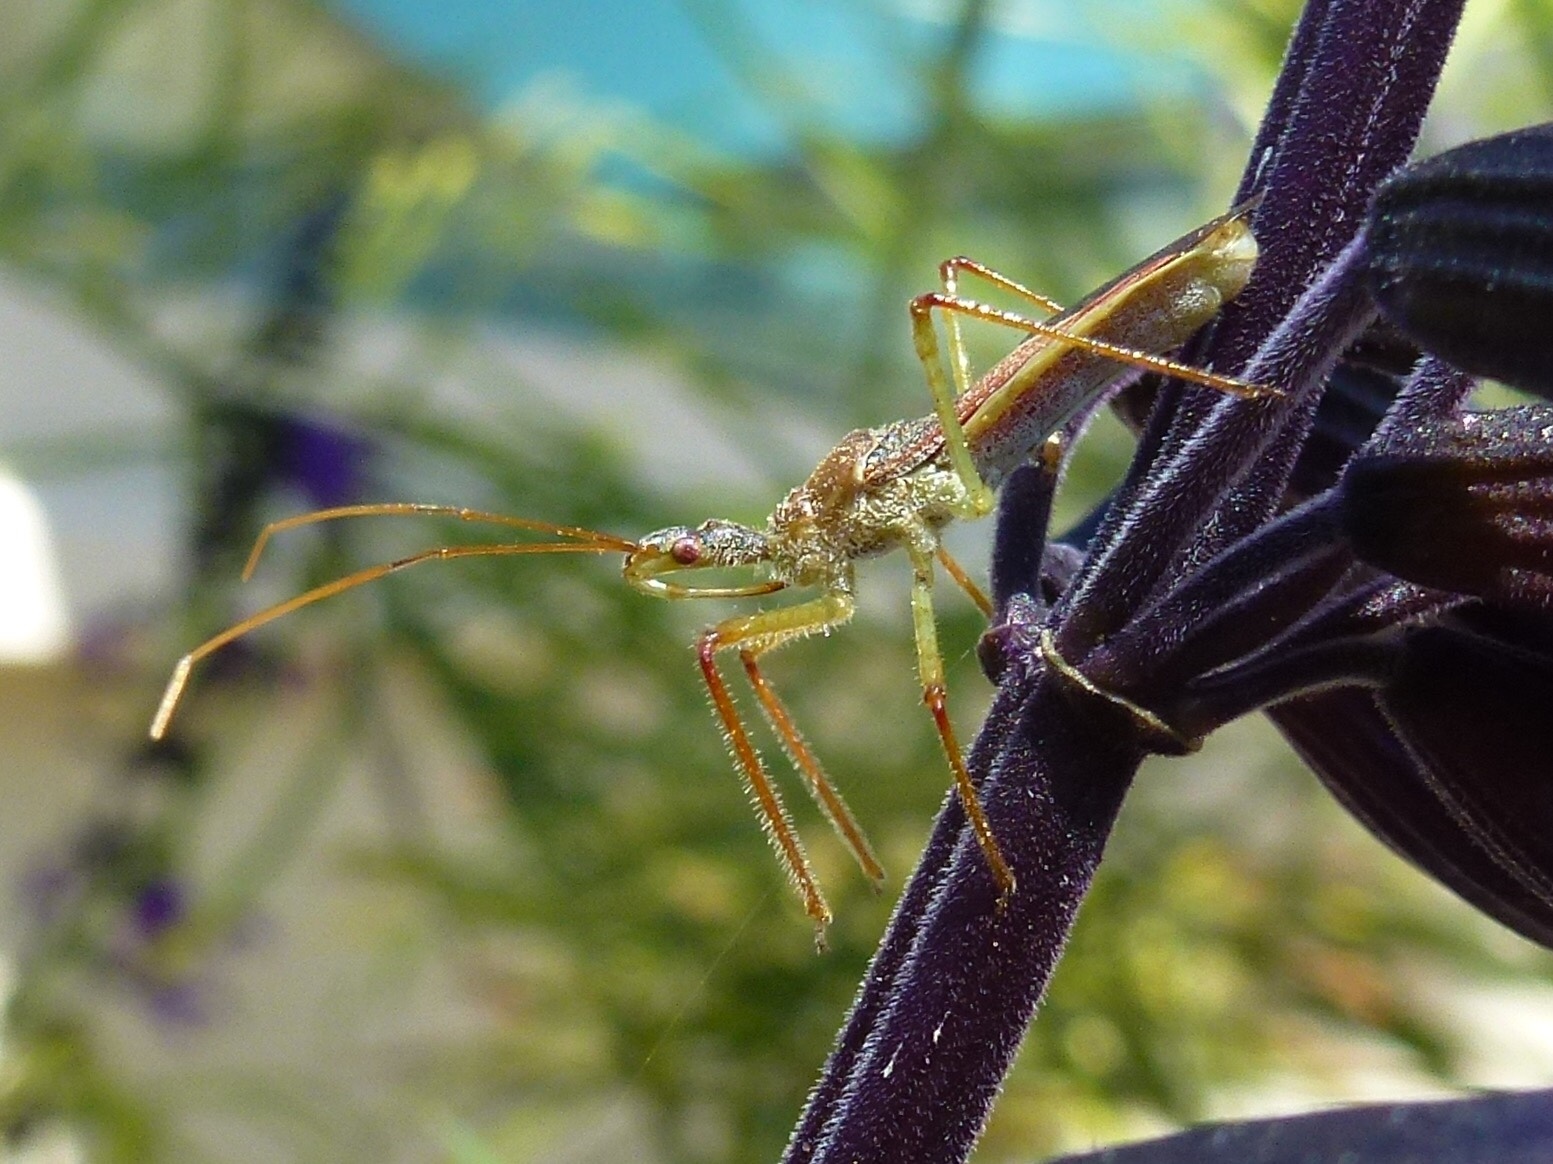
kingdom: Animalia
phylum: Arthropoda
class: Insecta
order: Hemiptera
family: Reduviidae
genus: Zelus
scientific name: Zelus renardii
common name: Assassin bug
